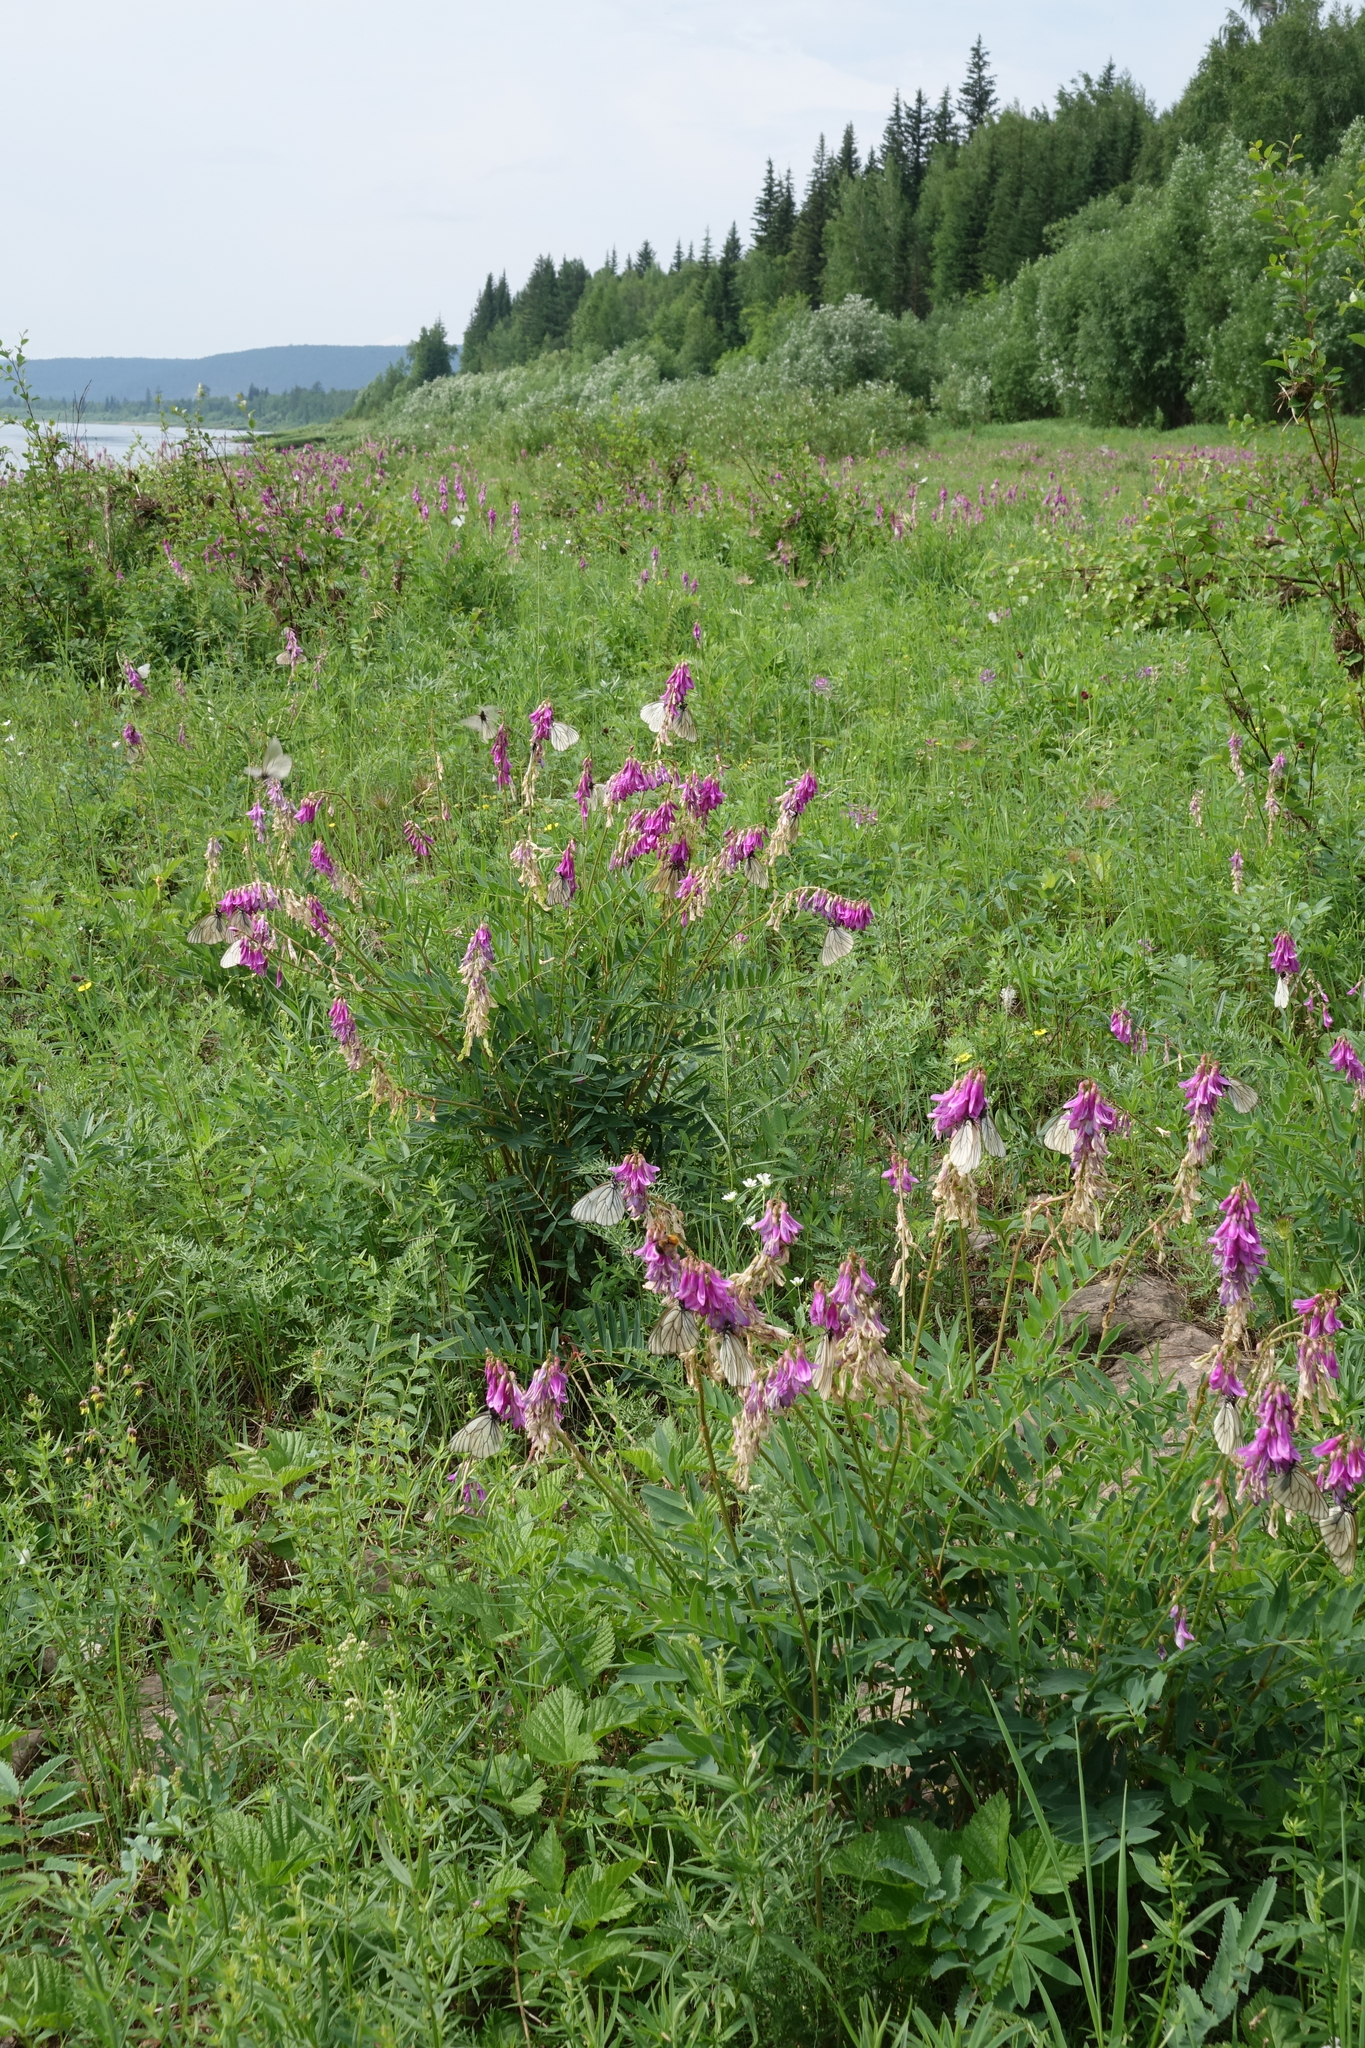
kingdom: Plantae
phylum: Tracheophyta
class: Magnoliopsida
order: Fabales
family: Fabaceae
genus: Hedysarum
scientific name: Hedysarum branthii
